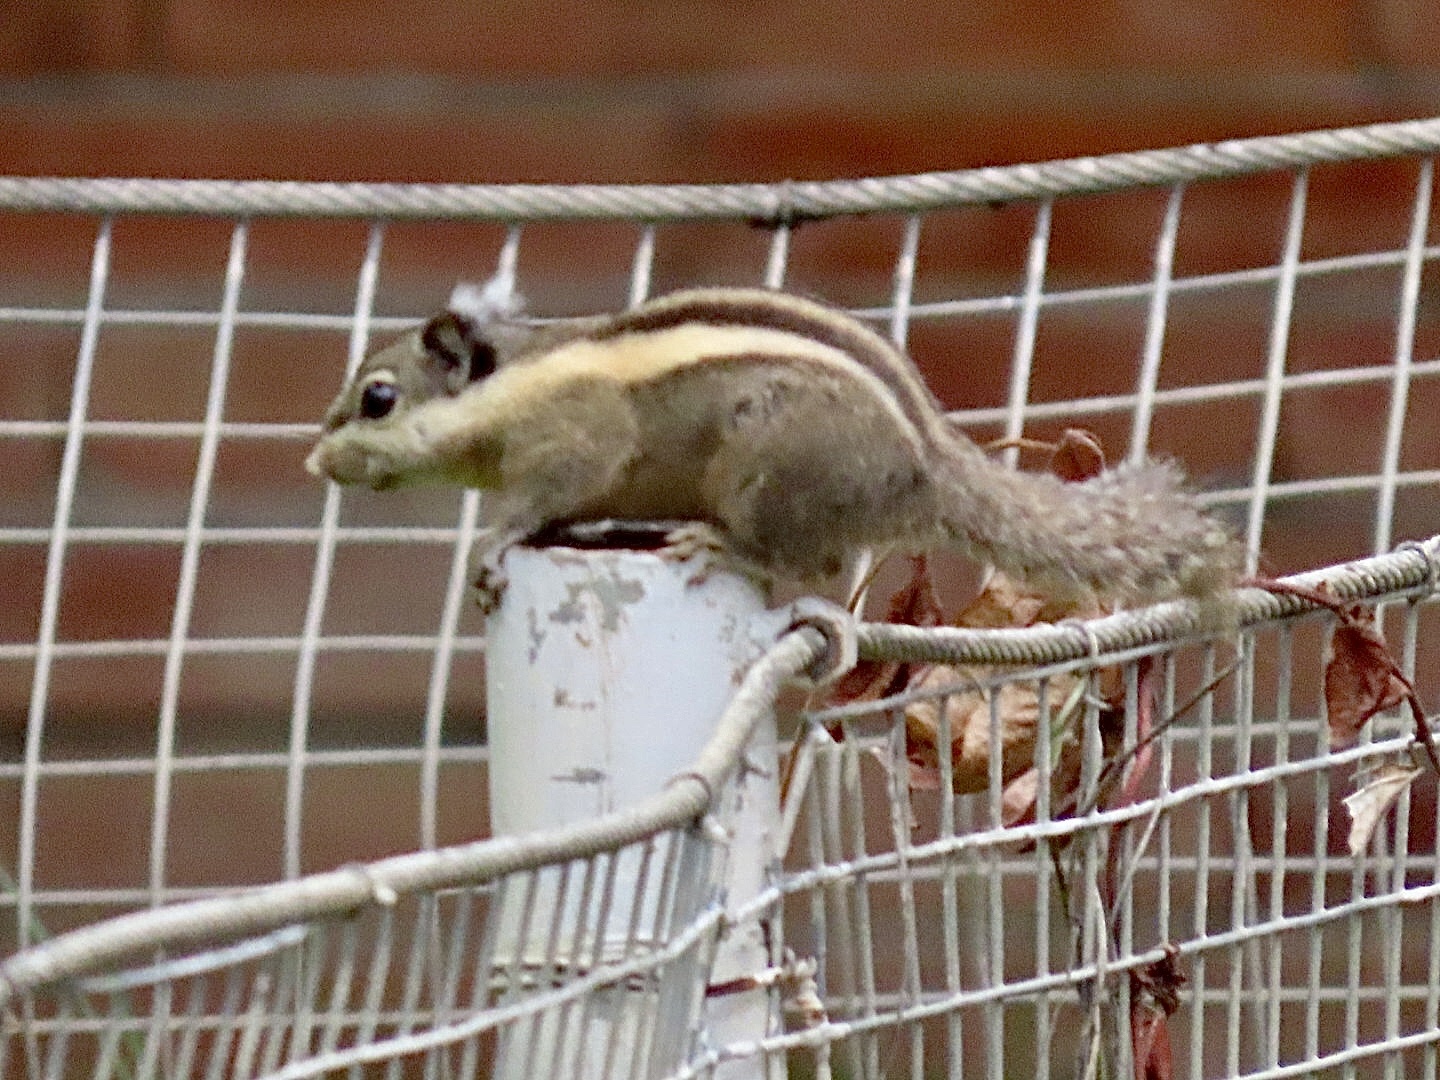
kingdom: Animalia
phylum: Chordata
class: Mammalia
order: Rodentia
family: Sciuridae
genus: Tamiops
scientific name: Tamiops mcclellandii
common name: Himalayan striped squirrel
